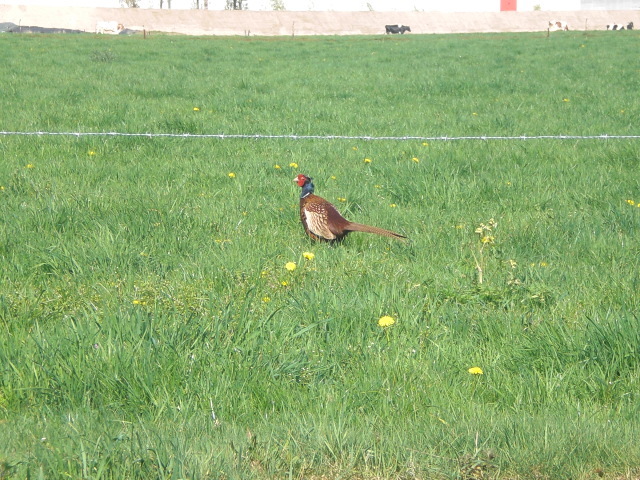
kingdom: Animalia
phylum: Chordata
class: Aves
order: Galliformes
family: Phasianidae
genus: Phasianus
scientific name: Phasianus colchicus
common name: Common pheasant
